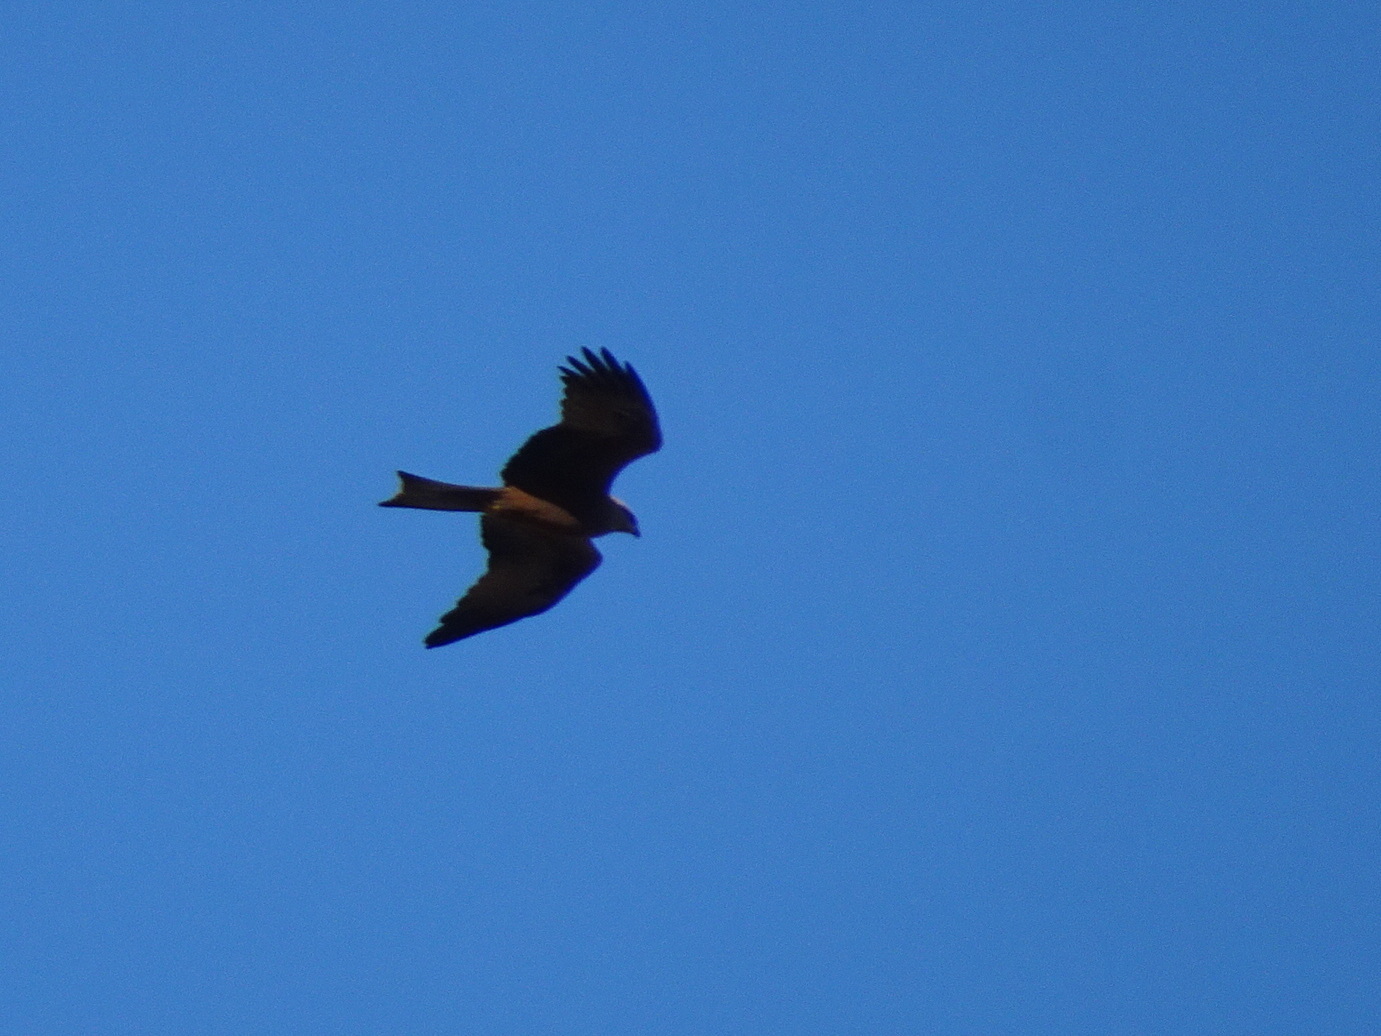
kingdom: Animalia
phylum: Chordata
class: Aves
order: Accipitriformes
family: Accipitridae
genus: Milvus
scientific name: Milvus migrans
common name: Black kite
